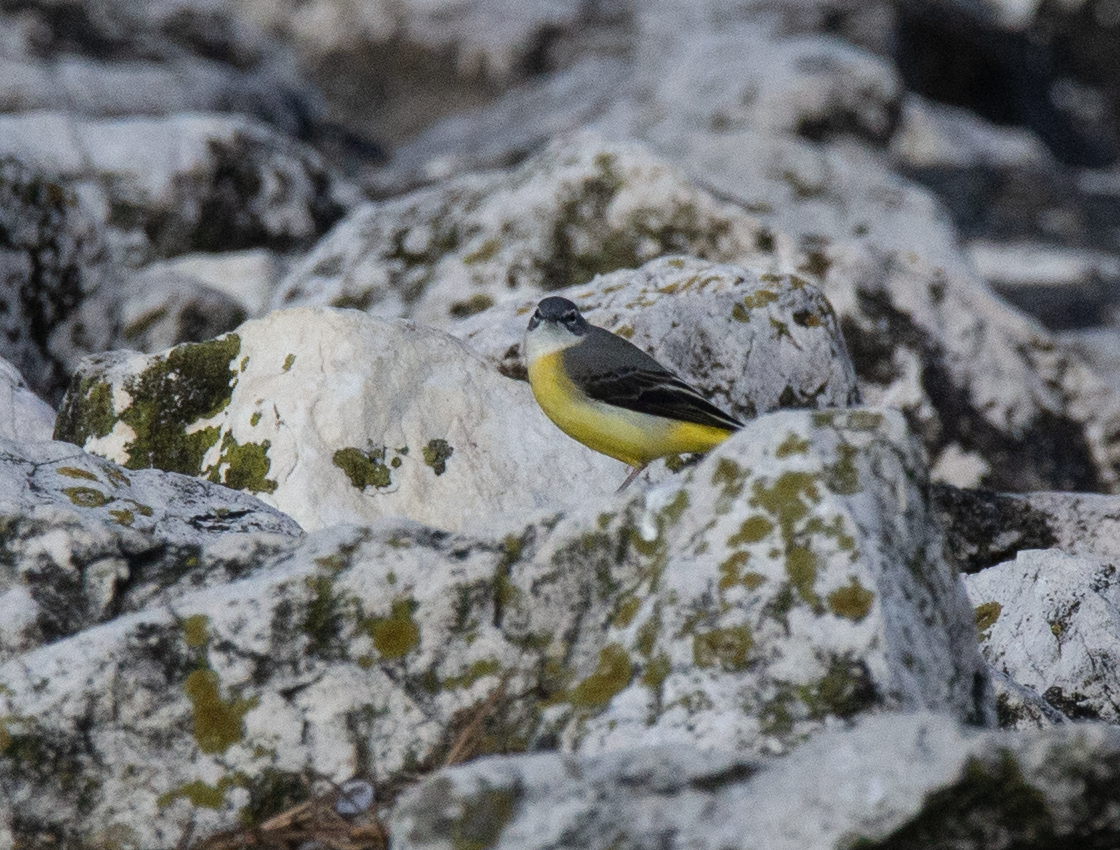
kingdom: Animalia
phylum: Chordata
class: Aves
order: Passeriformes
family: Motacillidae
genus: Motacilla
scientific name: Motacilla cinerea
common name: Grey wagtail
